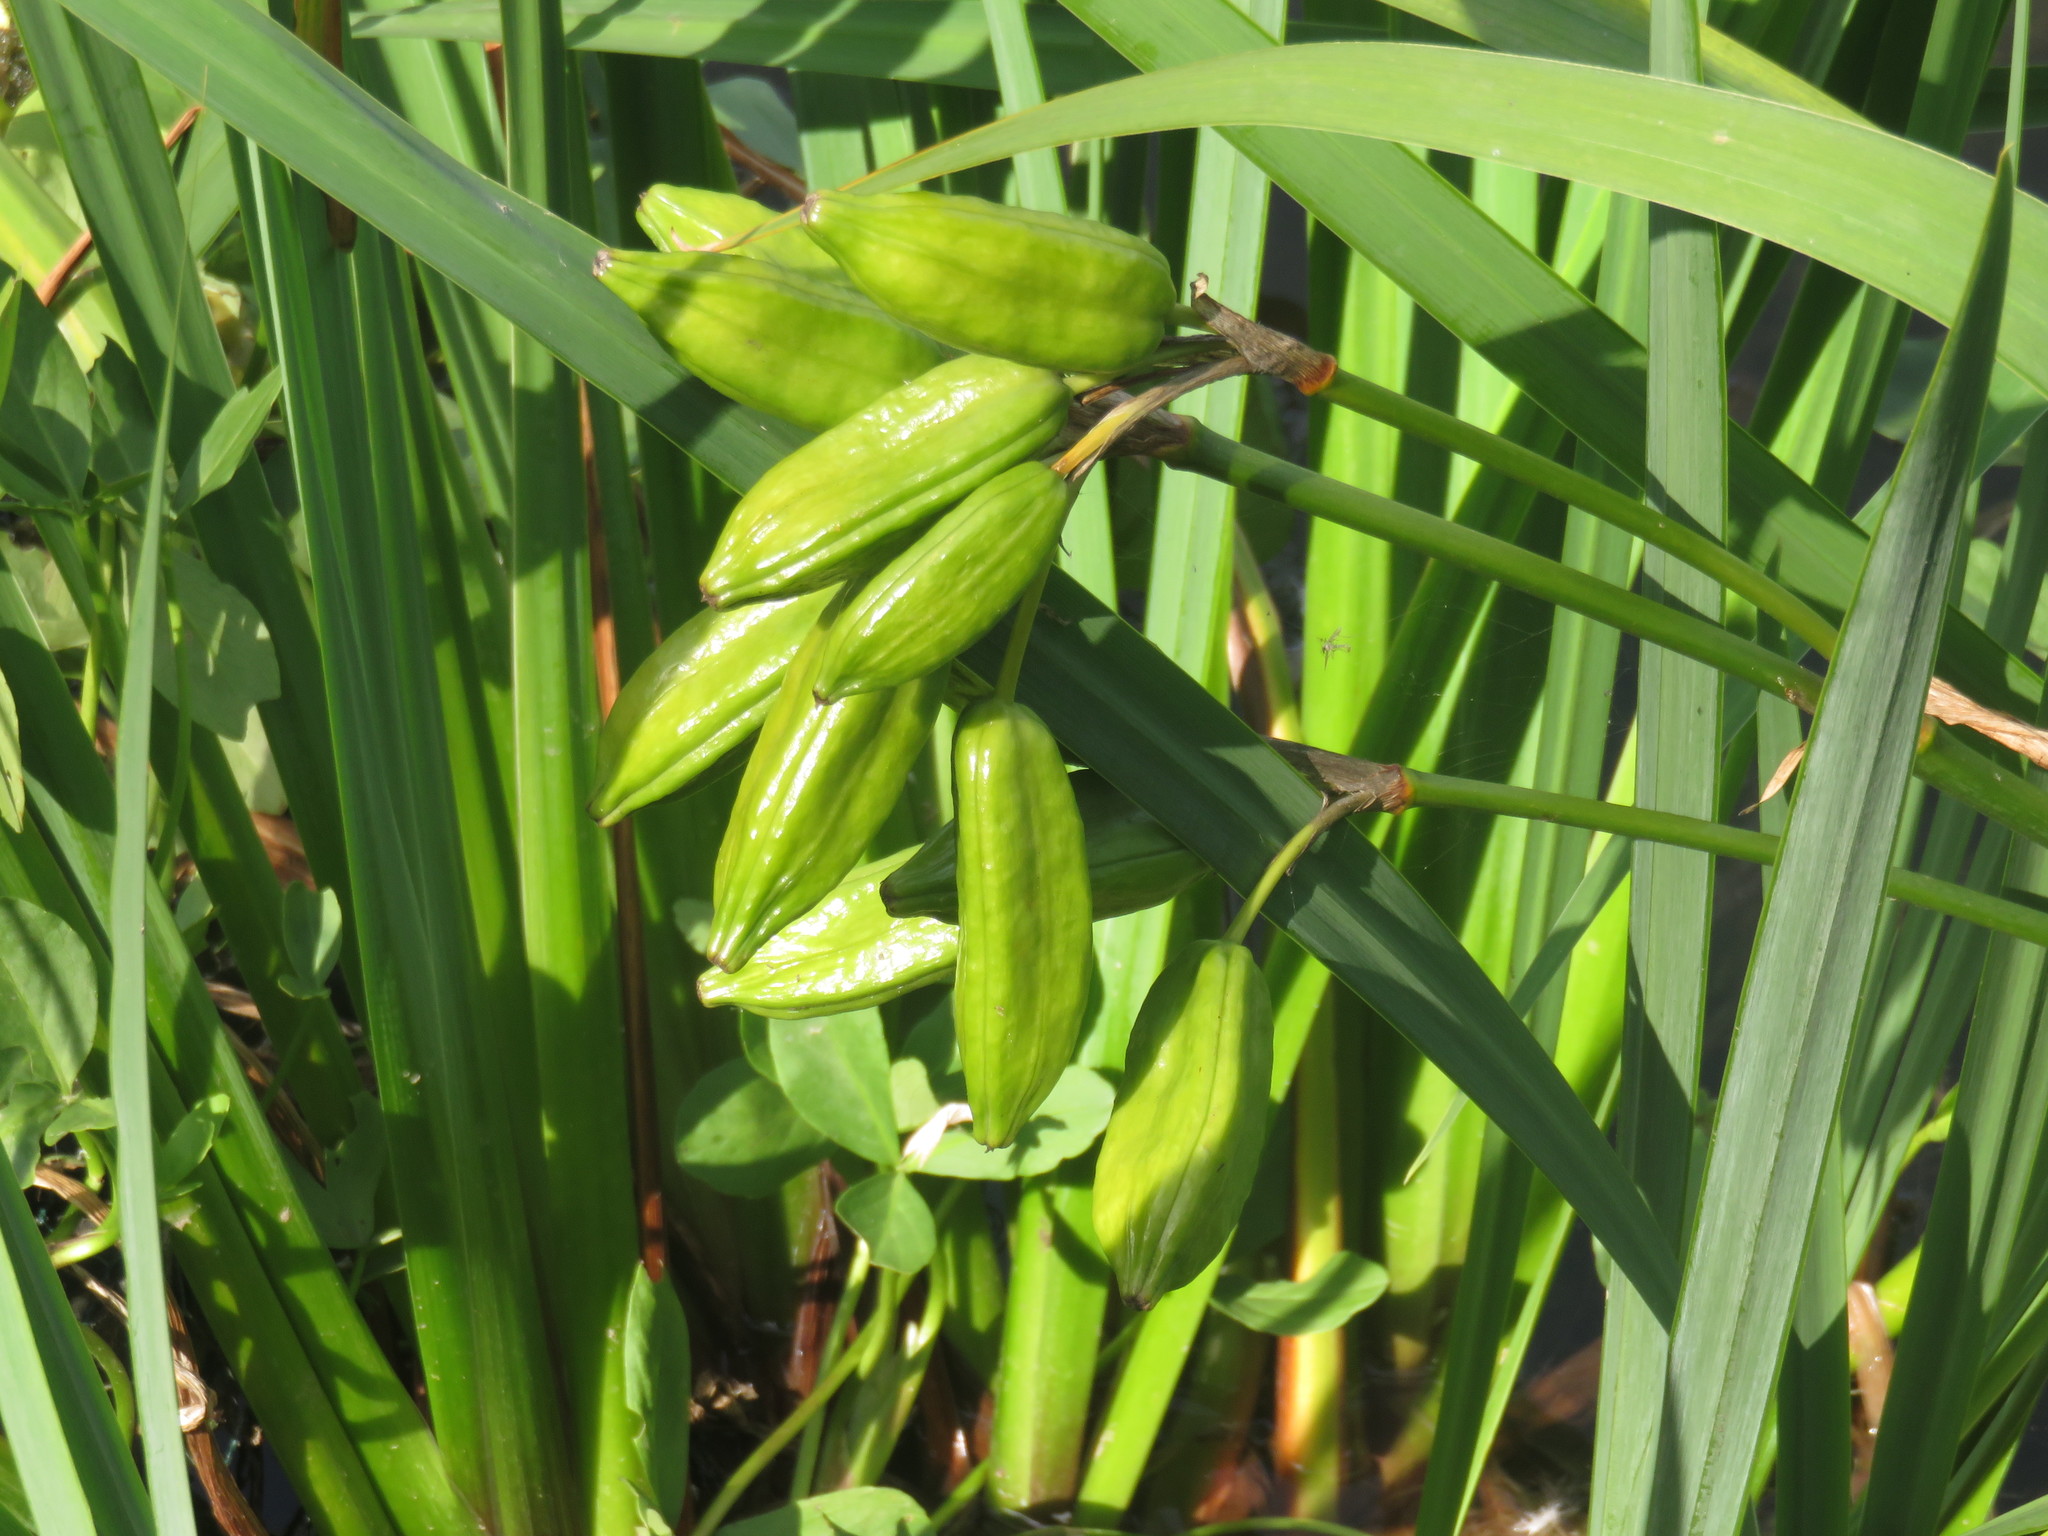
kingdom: Plantae
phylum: Tracheophyta
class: Liliopsida
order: Asparagales
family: Iridaceae
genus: Iris
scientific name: Iris pseudacorus
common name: Yellow flag
